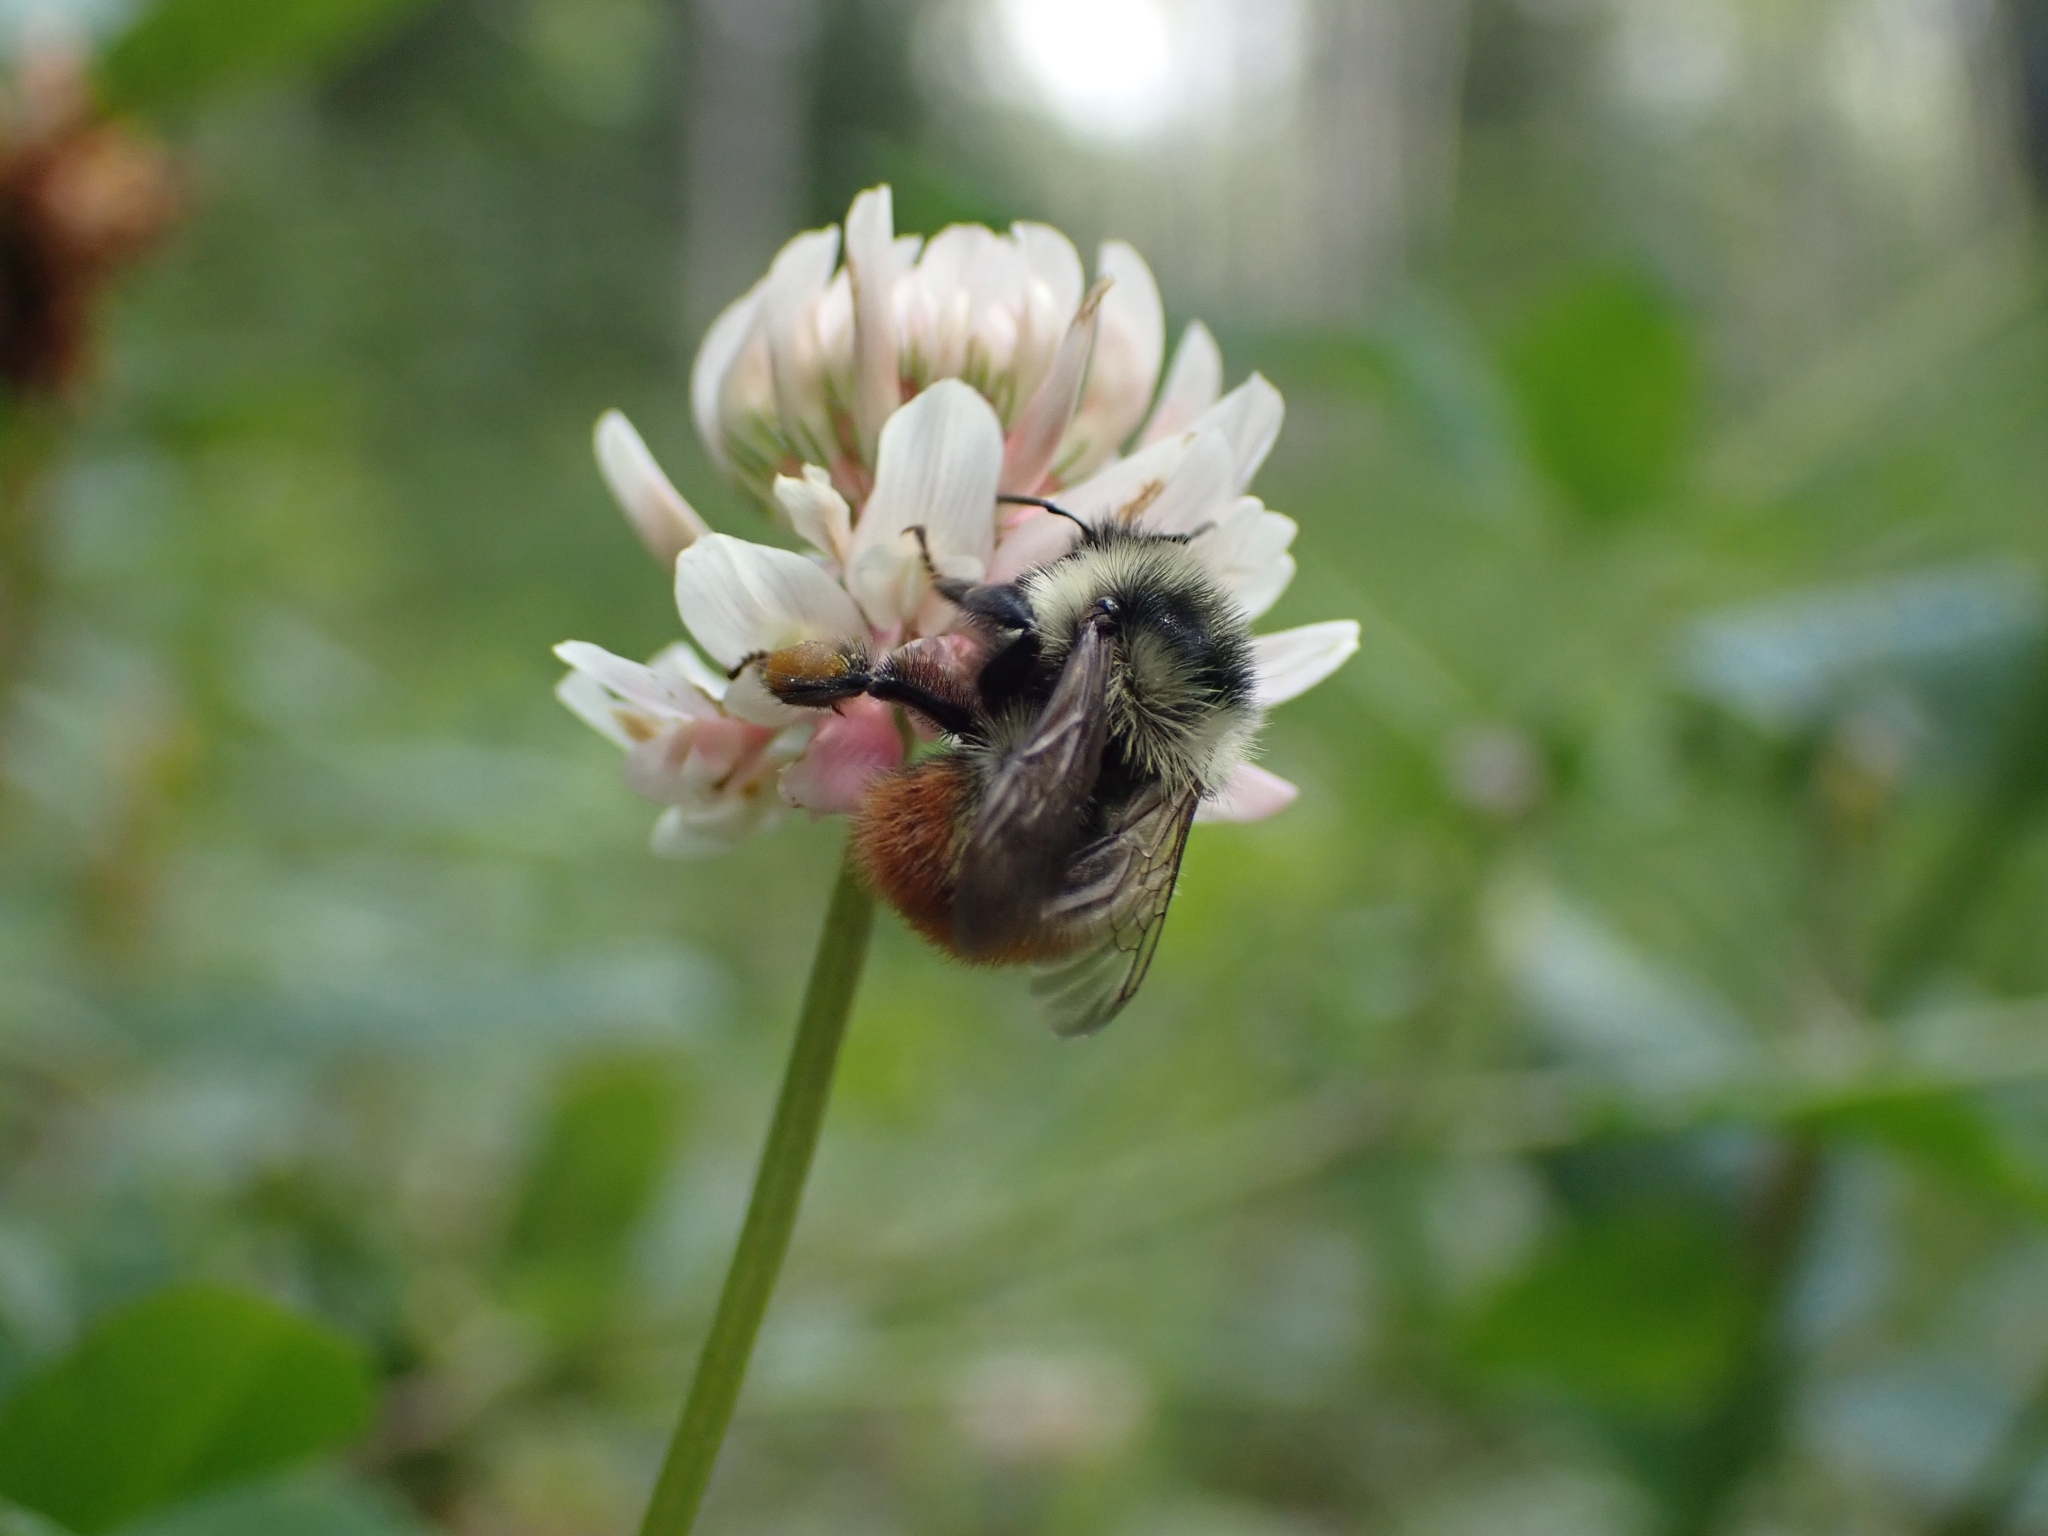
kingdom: Animalia
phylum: Arthropoda
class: Insecta
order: Hymenoptera
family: Apidae
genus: Bombus
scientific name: Bombus rufocinctus
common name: Red-belted bumble bee
